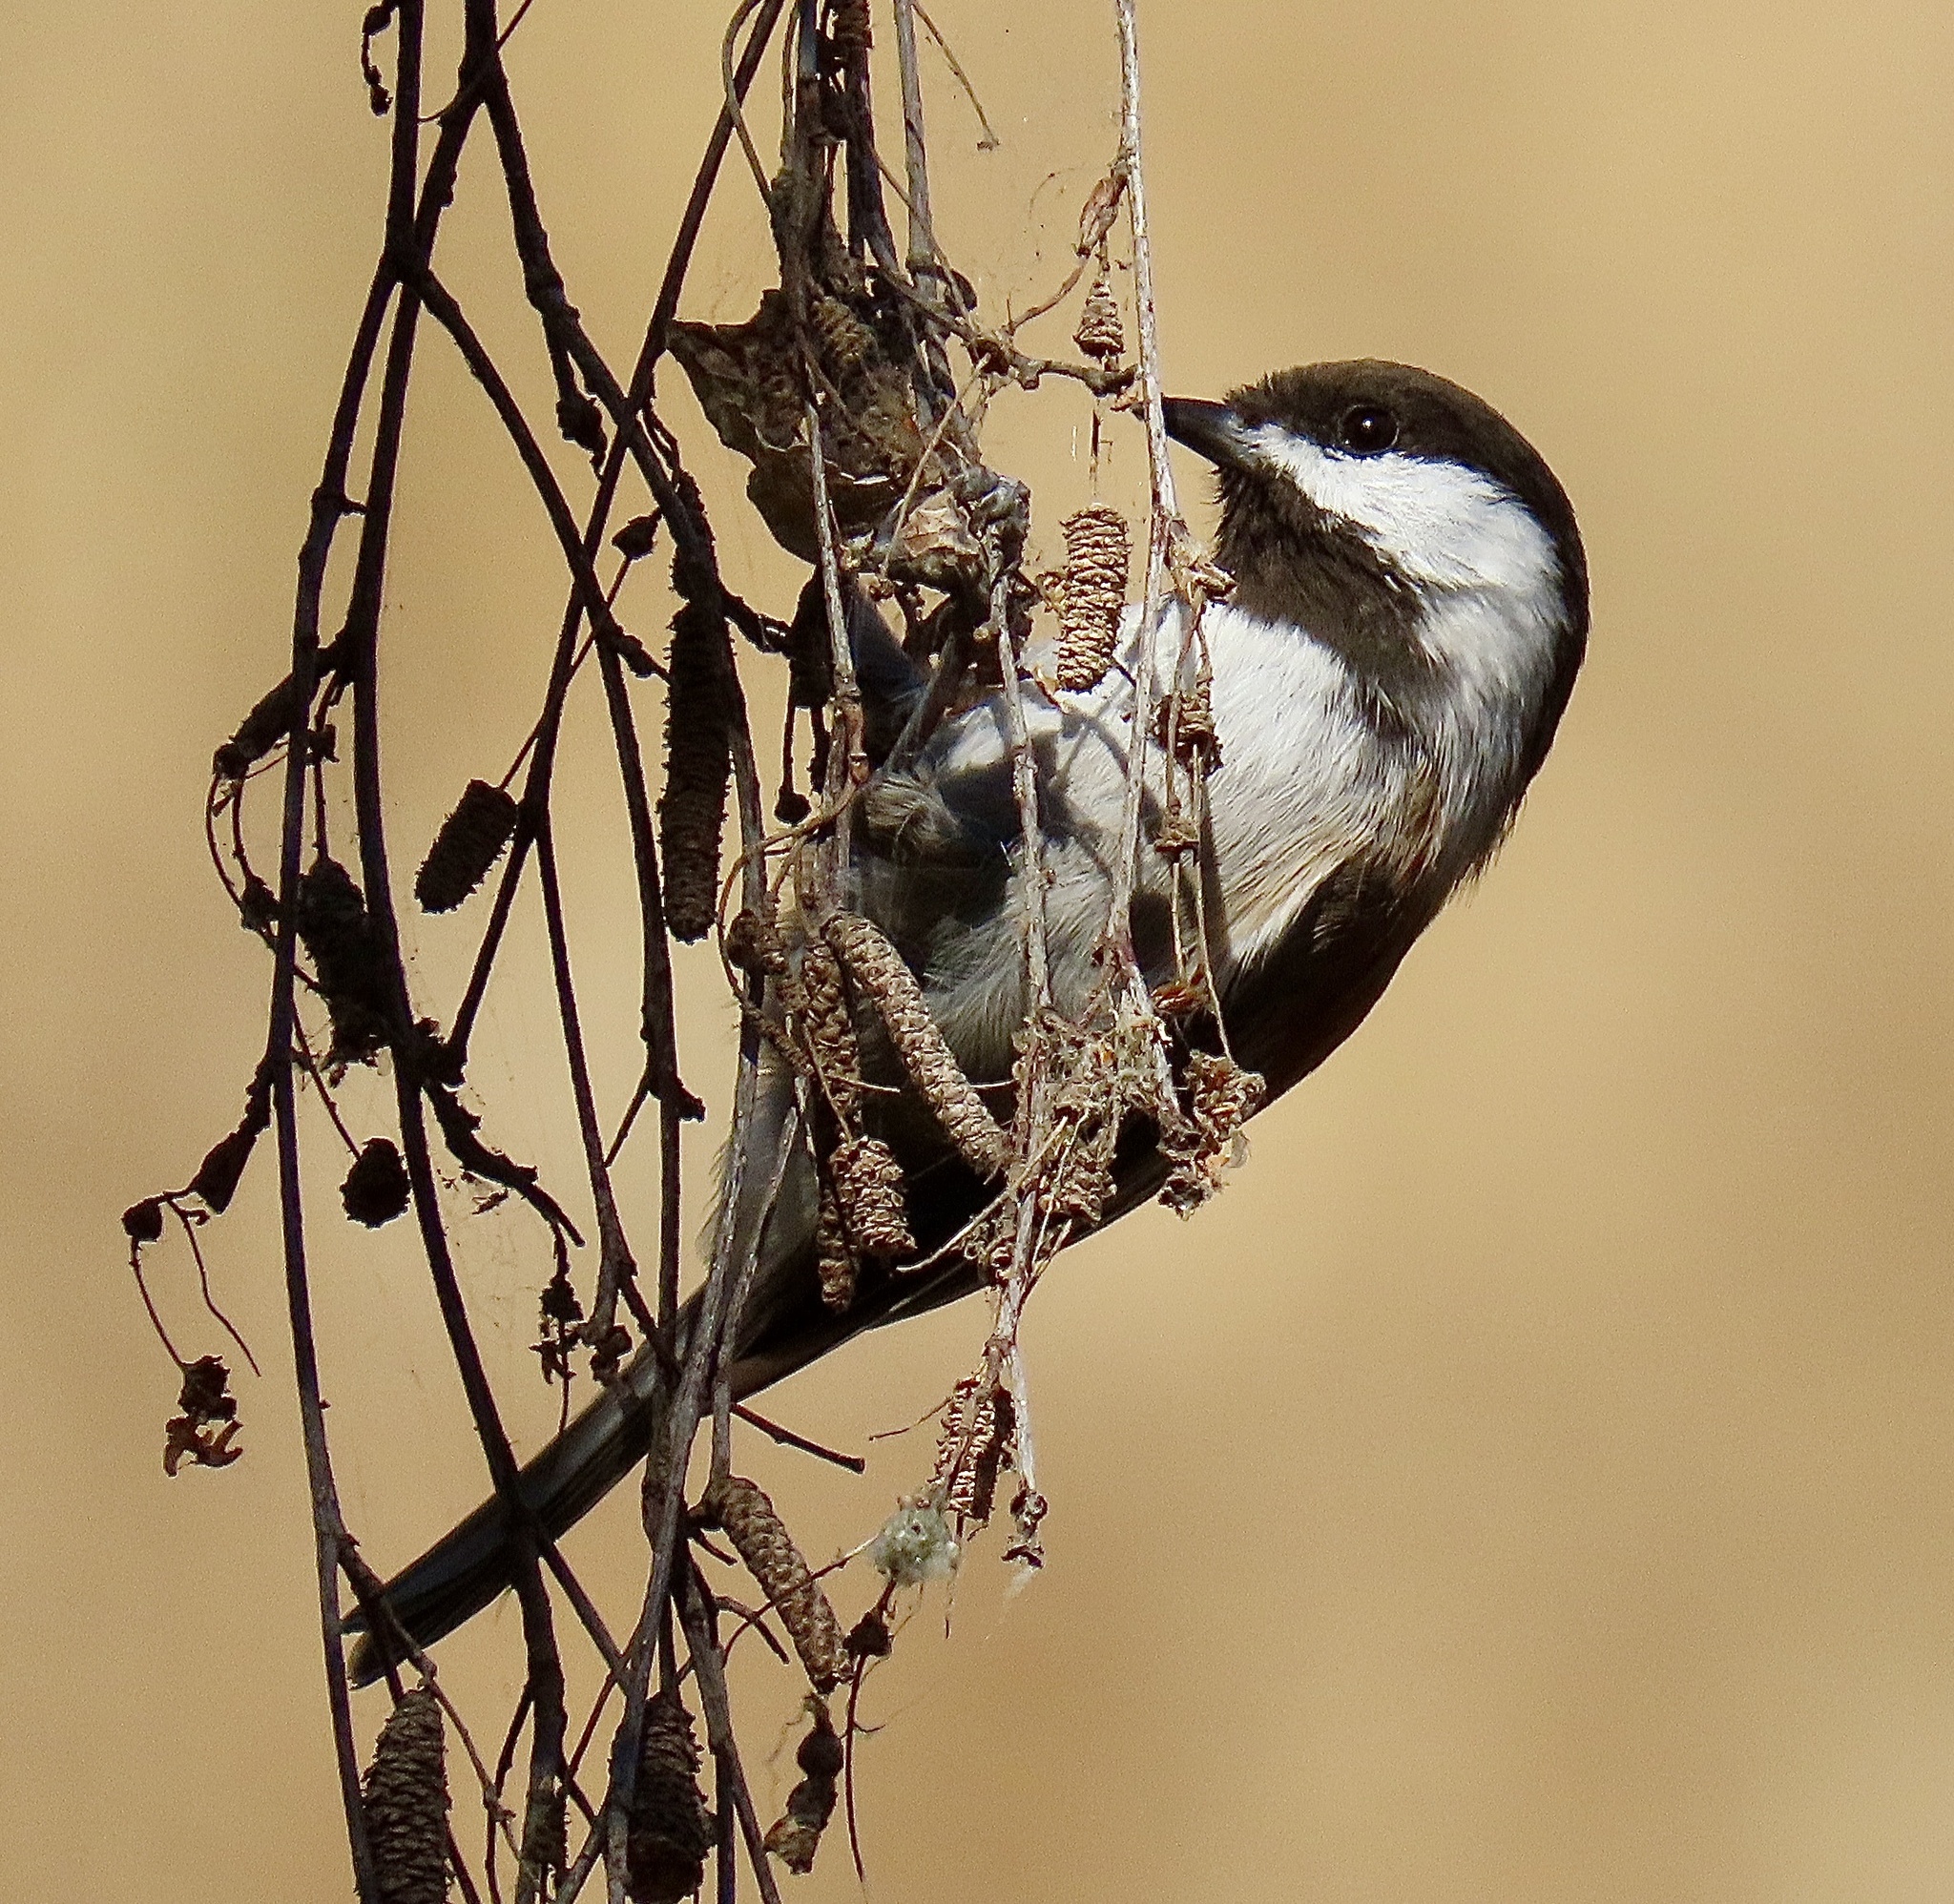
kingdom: Animalia
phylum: Chordata
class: Aves
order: Passeriformes
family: Paridae
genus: Poecile
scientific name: Poecile rufescens
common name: Chestnut-backed chickadee
